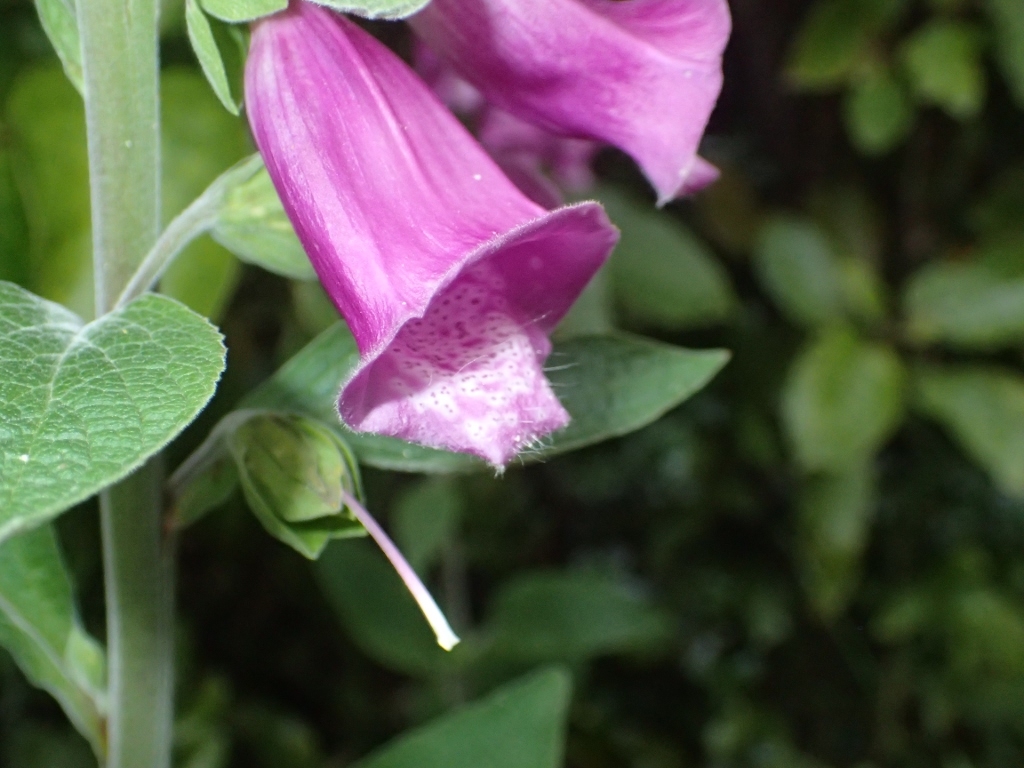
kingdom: Plantae
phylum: Tracheophyta
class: Magnoliopsida
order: Lamiales
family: Plantaginaceae
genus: Digitalis
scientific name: Digitalis purpurea
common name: Foxglove
